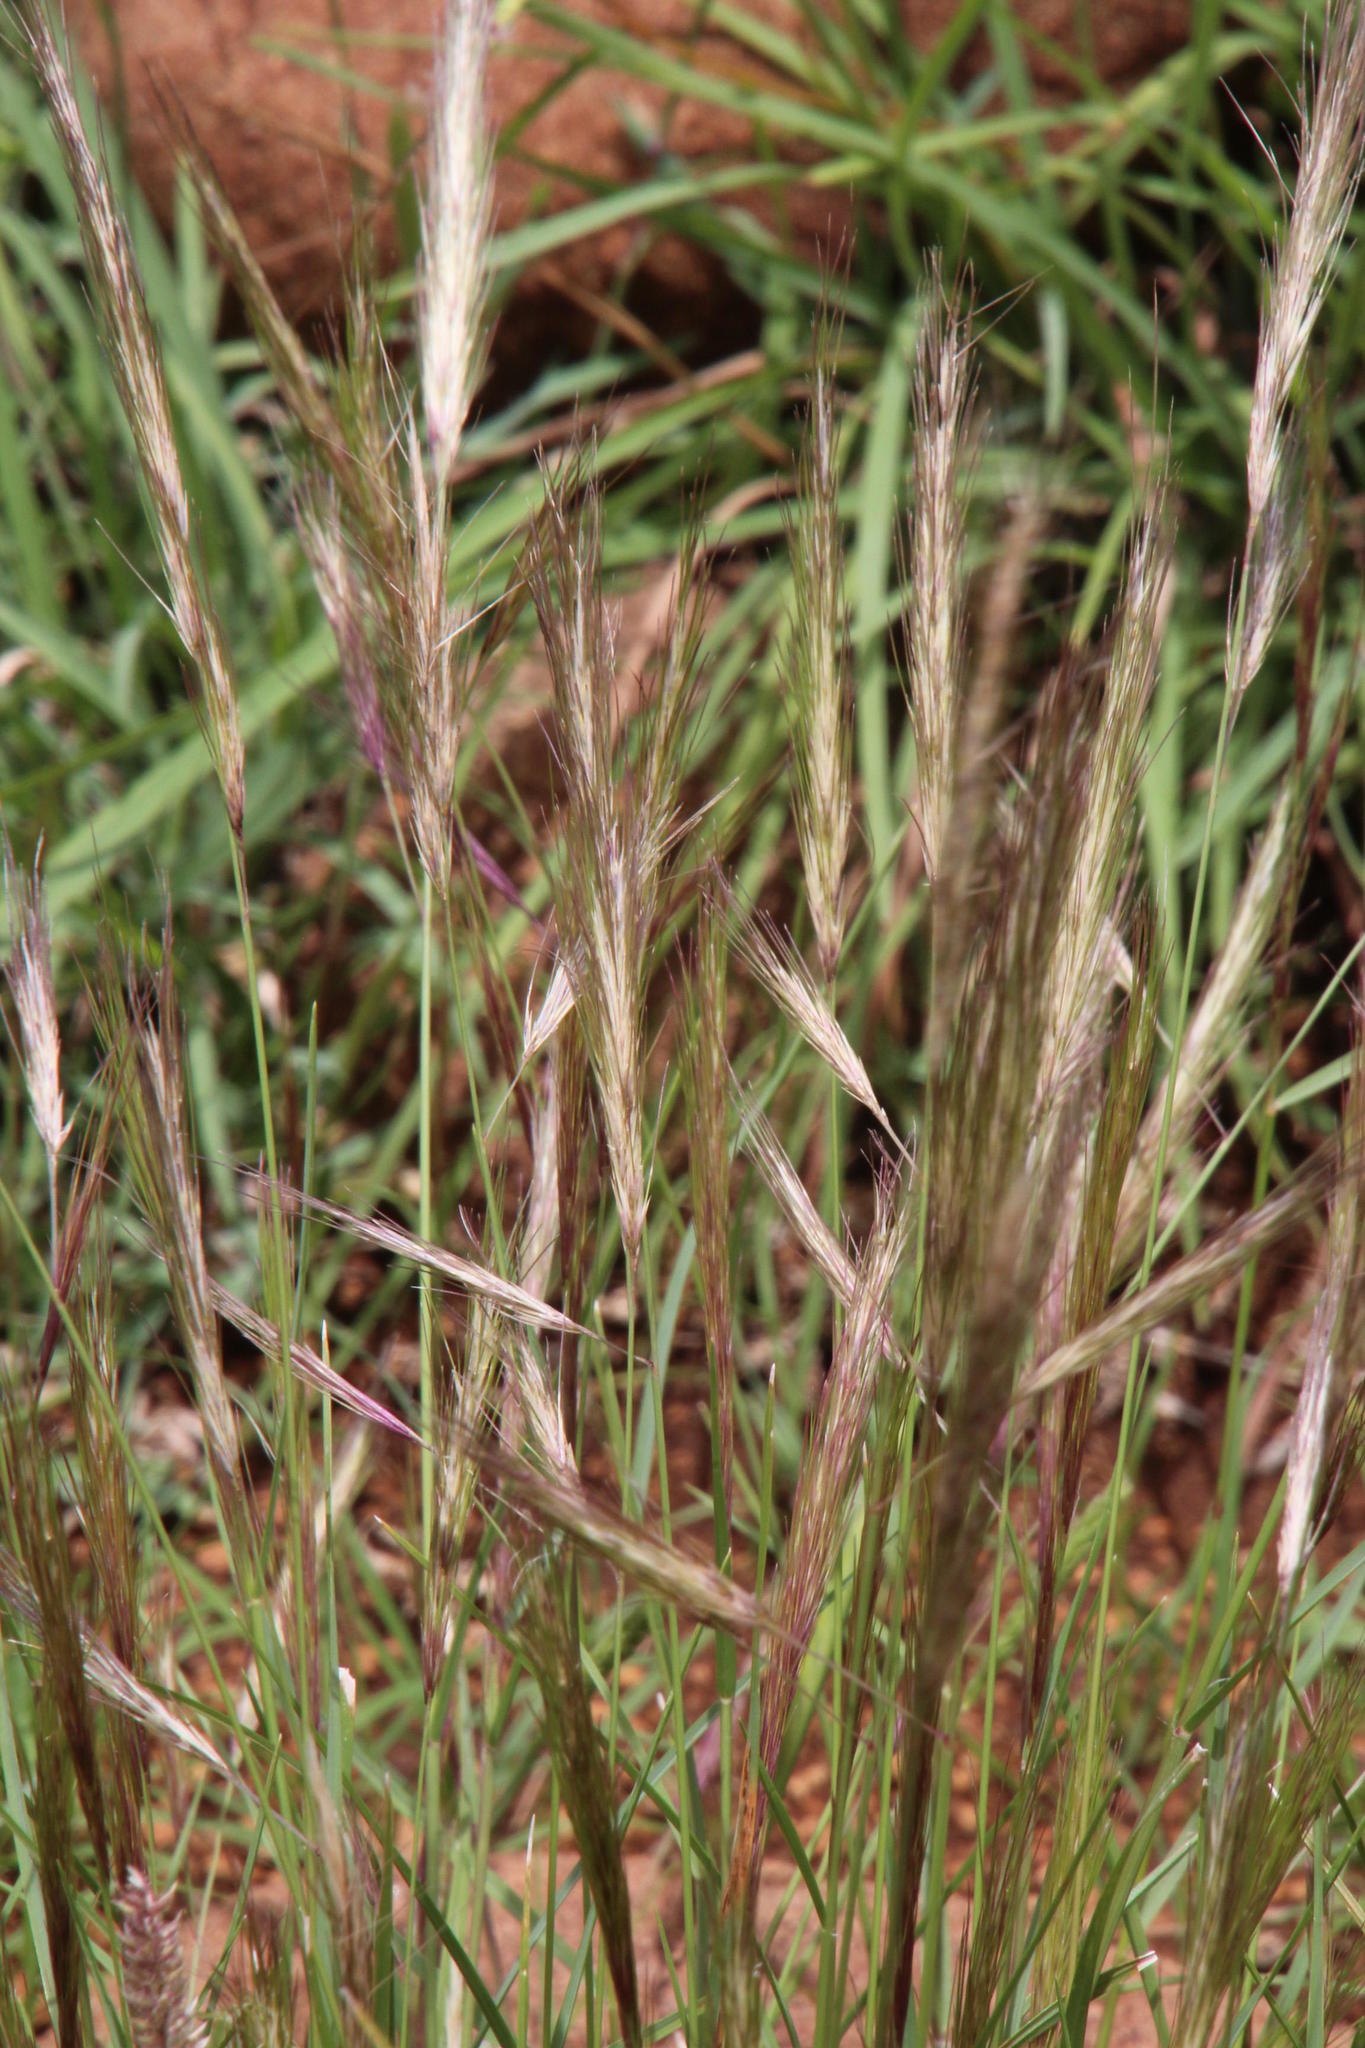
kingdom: Plantae
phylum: Tracheophyta
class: Liliopsida
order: Poales
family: Poaceae
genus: Aristida
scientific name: Aristida barbicollis
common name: Spreading prickle grass
